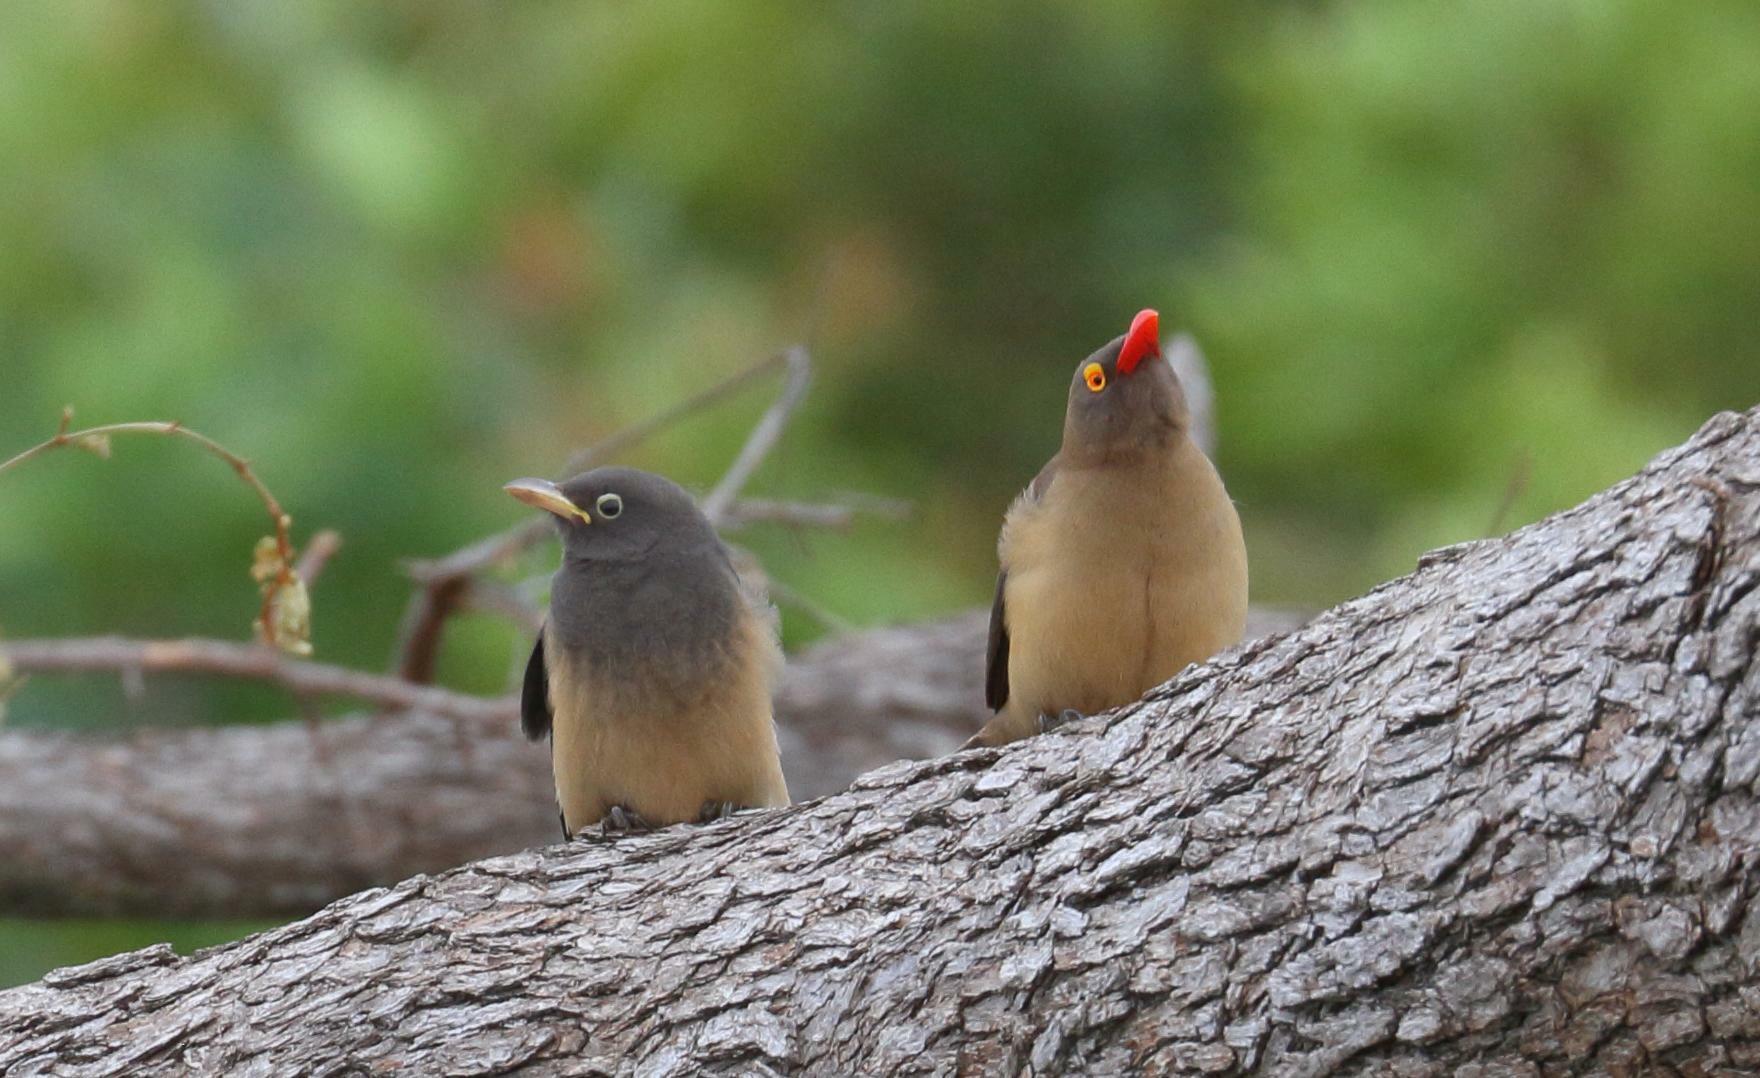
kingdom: Animalia
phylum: Chordata
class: Aves
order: Passeriformes
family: Buphagidae
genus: Buphagus
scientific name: Buphagus erythrorhynchus
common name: Red-billed oxpecker
